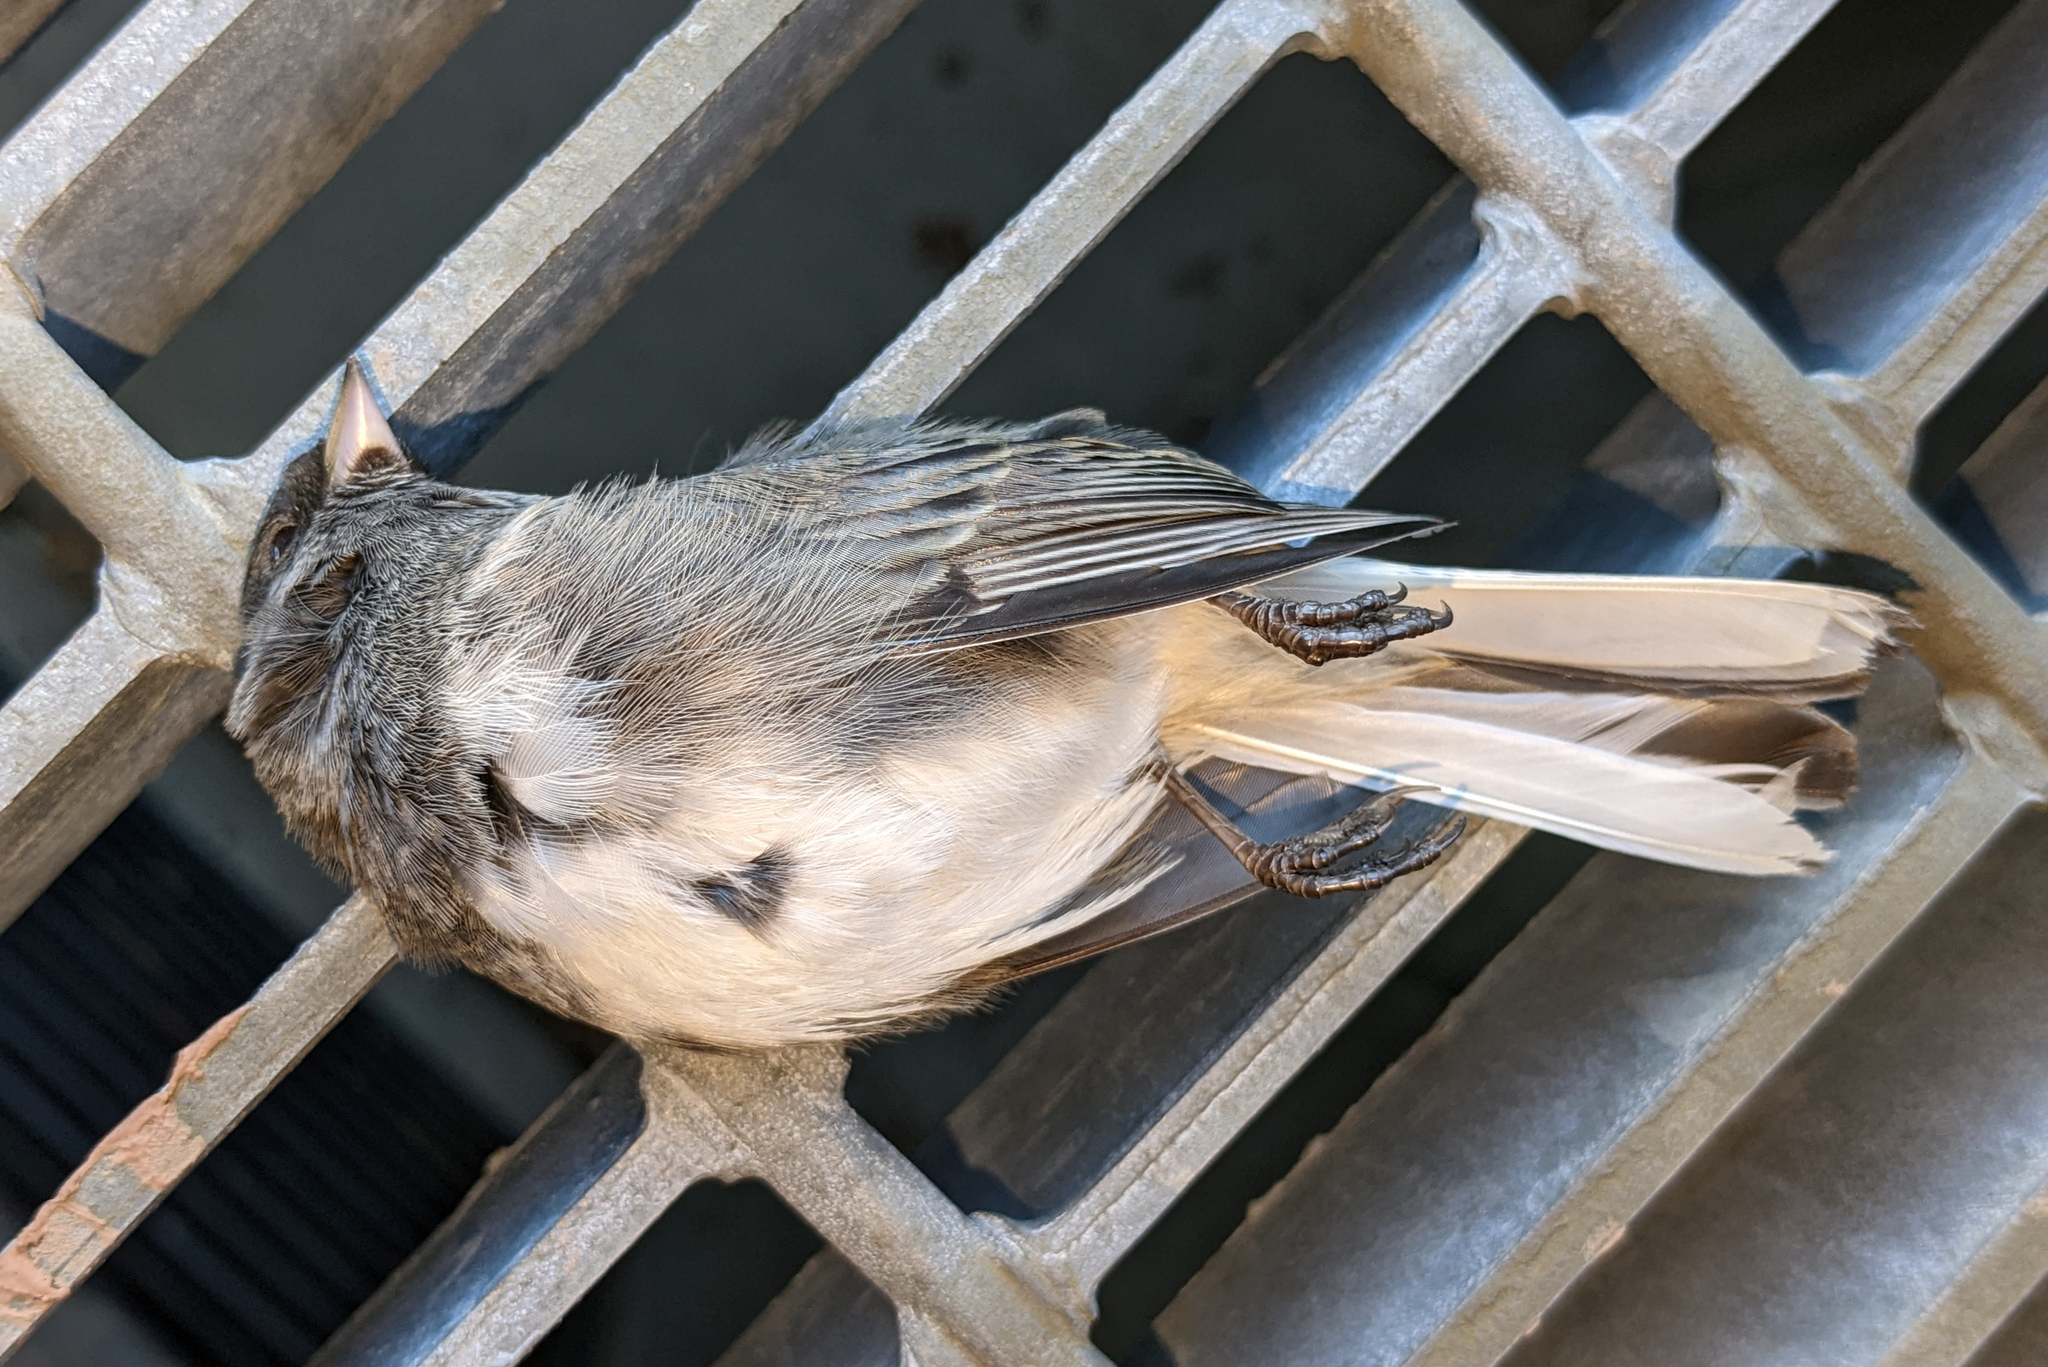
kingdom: Animalia
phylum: Chordata
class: Aves
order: Passeriformes
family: Passerellidae
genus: Junco
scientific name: Junco hyemalis
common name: Dark-eyed junco
